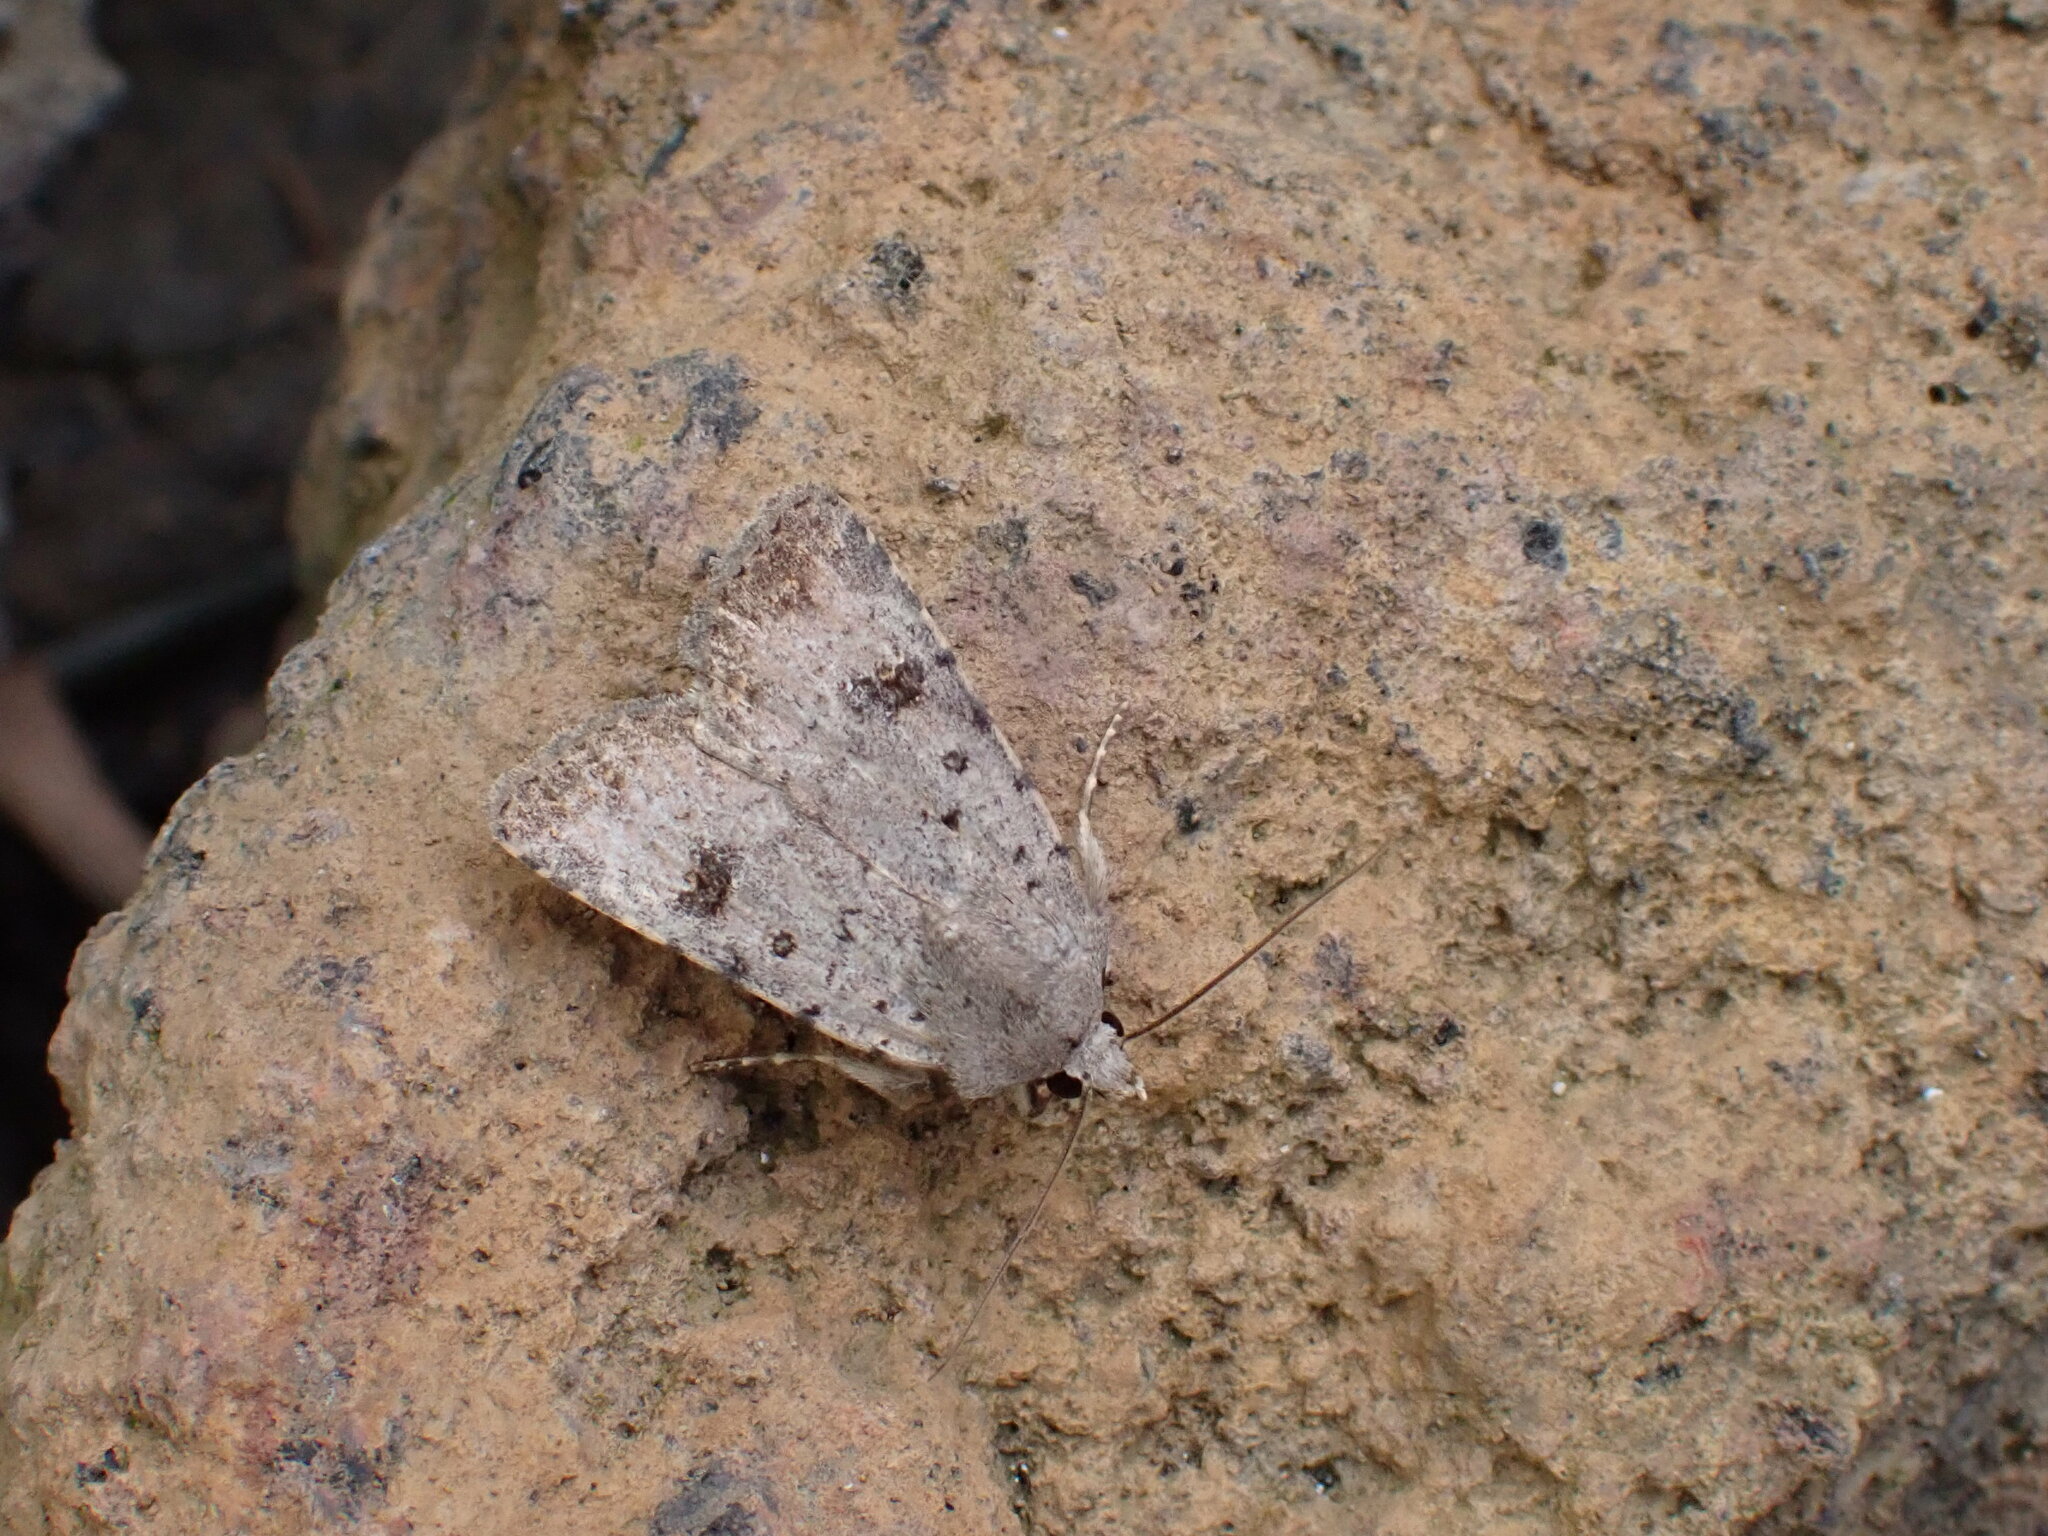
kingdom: Animalia
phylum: Arthropoda
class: Insecta
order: Lepidoptera
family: Noctuidae
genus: Caradrina
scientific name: Caradrina rebeli
